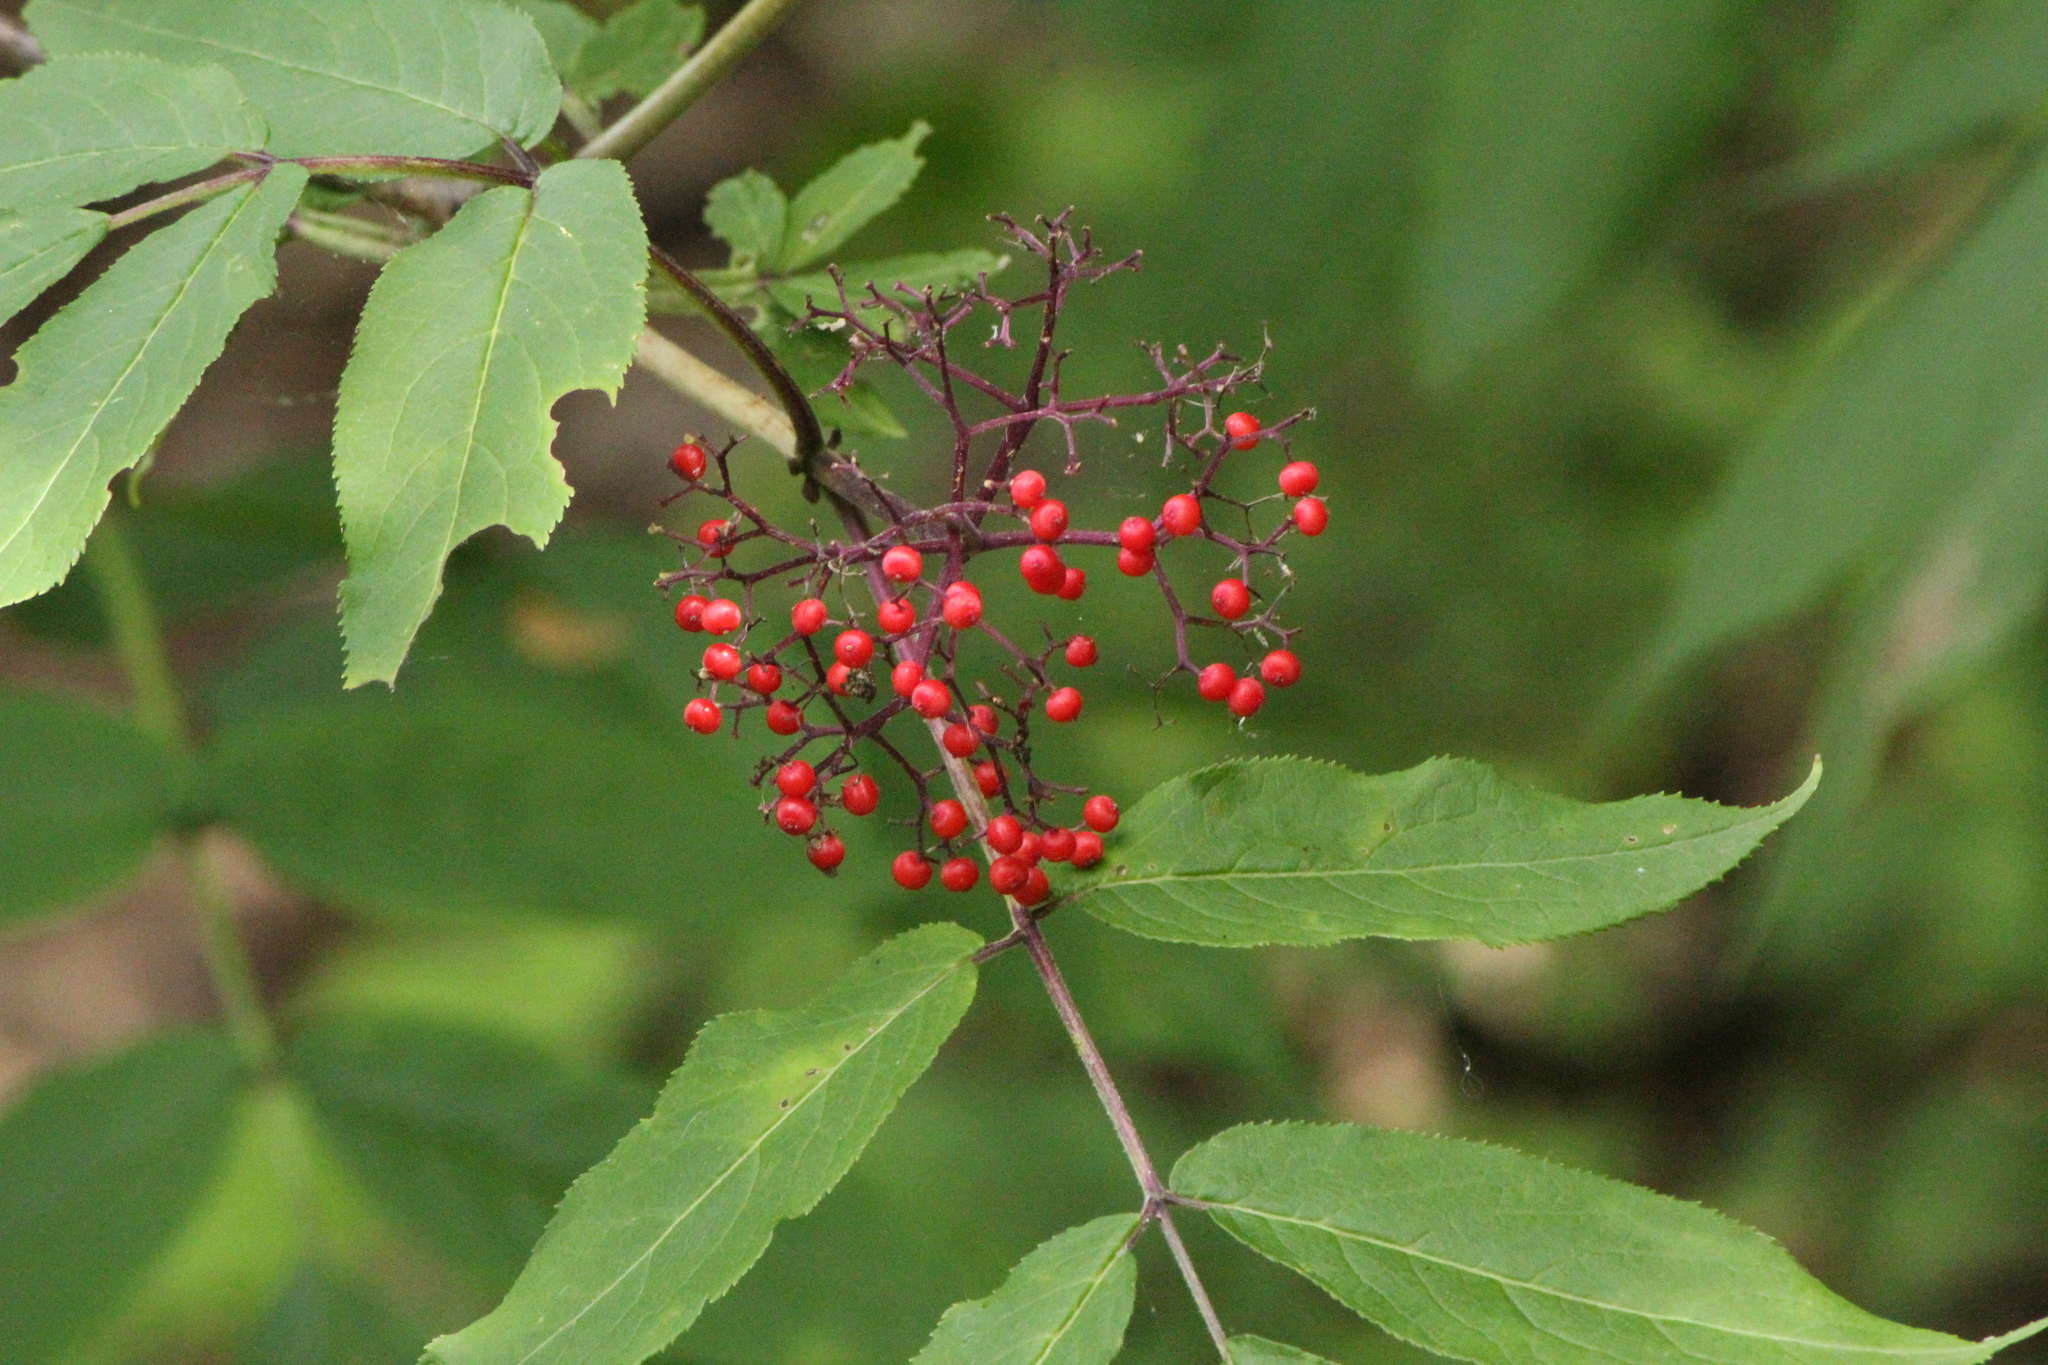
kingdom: Plantae
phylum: Tracheophyta
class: Magnoliopsida
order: Dipsacales
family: Viburnaceae
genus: Sambucus
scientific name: Sambucus racemosa
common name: Red-berried elder
